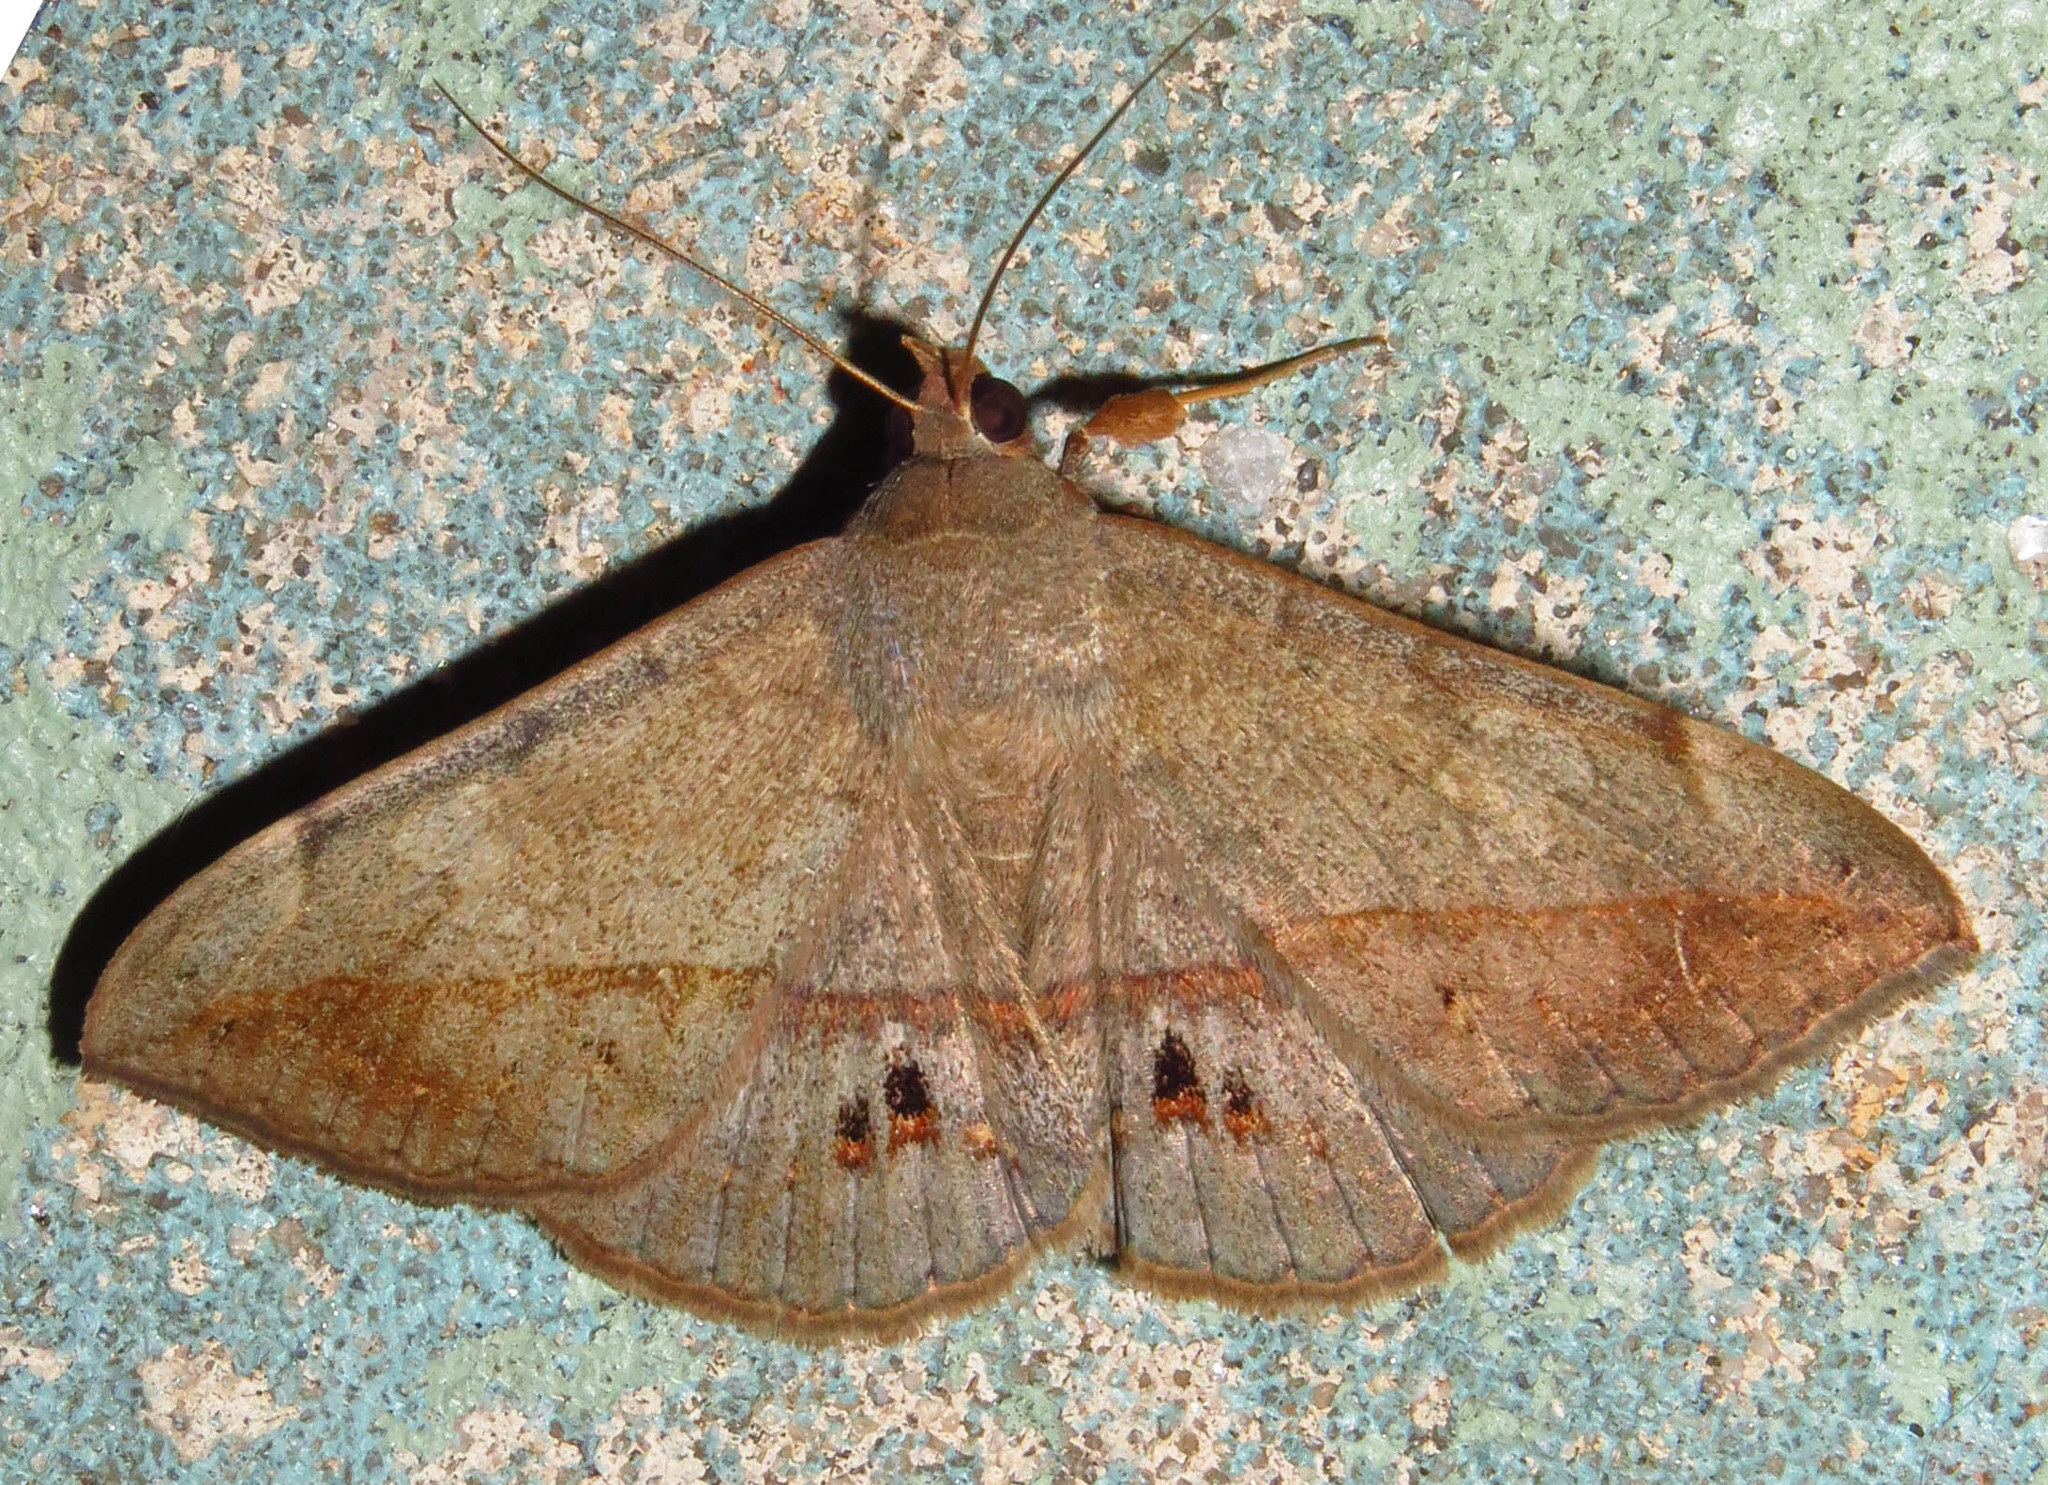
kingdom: Animalia
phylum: Arthropoda
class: Insecta
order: Lepidoptera
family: Erebidae
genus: Anticarsia
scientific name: Anticarsia gemmatalis
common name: Cutworm moth
